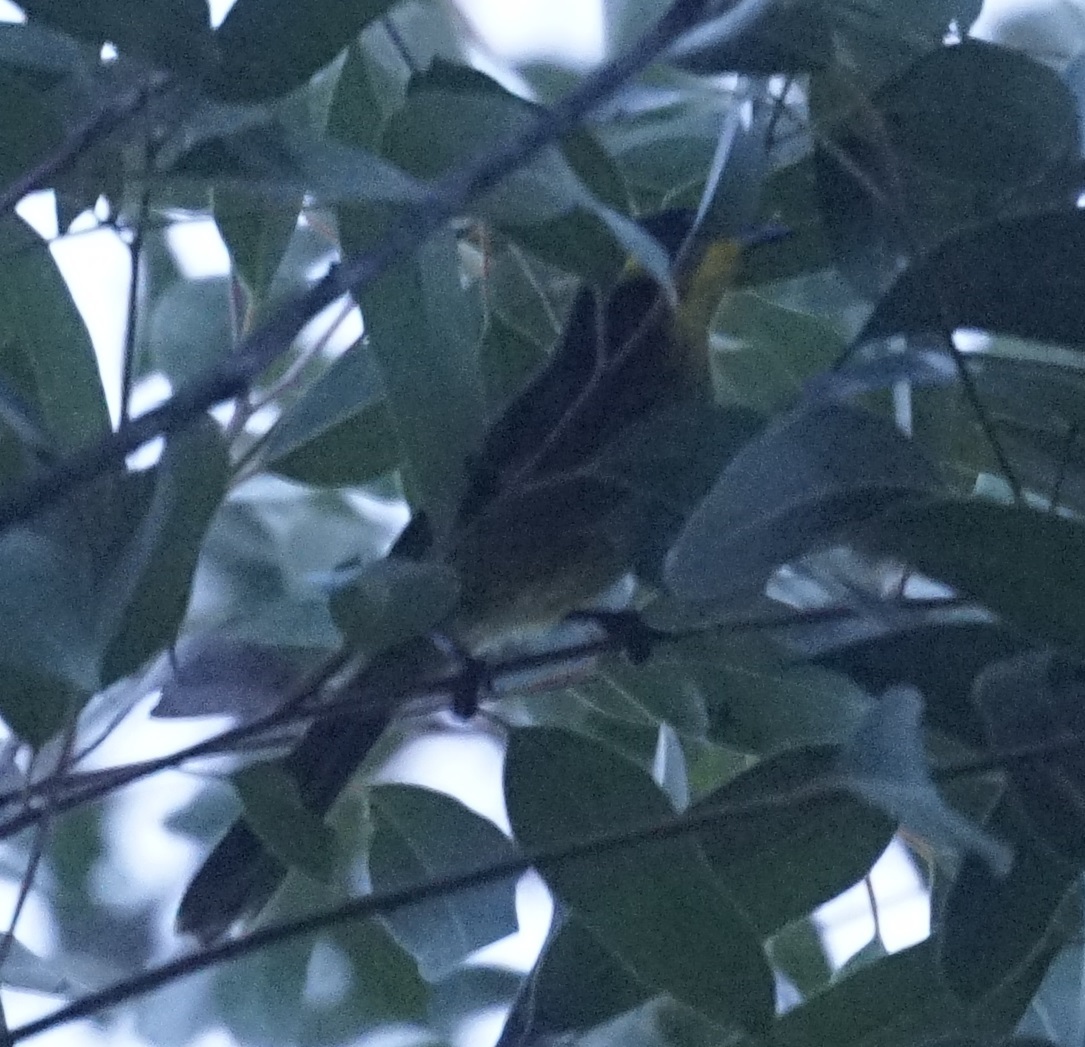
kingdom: Animalia
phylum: Chordata
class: Aves
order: Passeriformes
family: Meliphagidae
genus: Lichenostomus
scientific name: Lichenostomus melanops
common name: Yellow-tufted honeyeater
